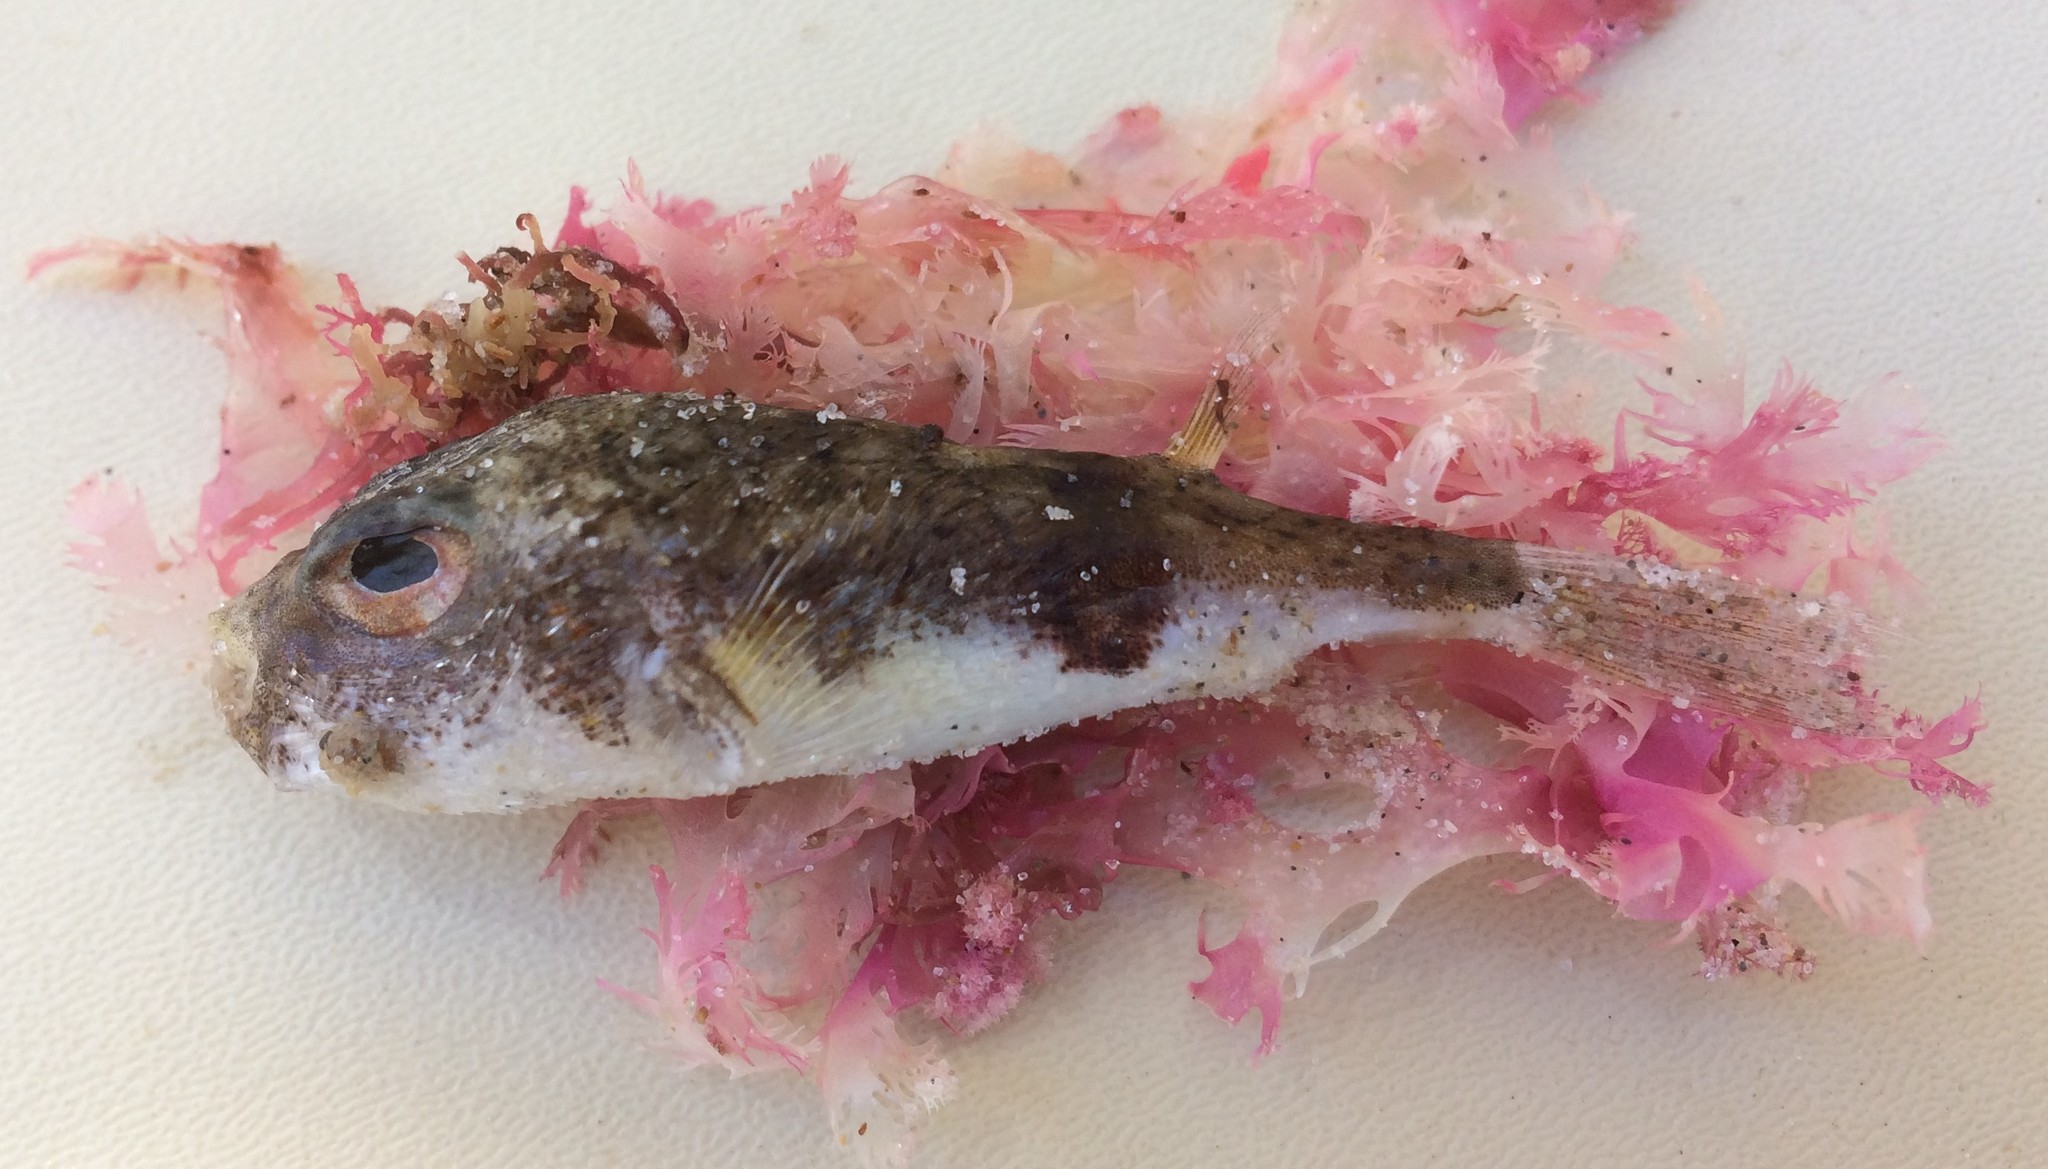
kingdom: Animalia
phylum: Chordata
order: Tetraodontiformes
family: Tetraodontidae
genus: Polyspina
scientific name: Polyspina piosae
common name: Orange-barred pufferfish
